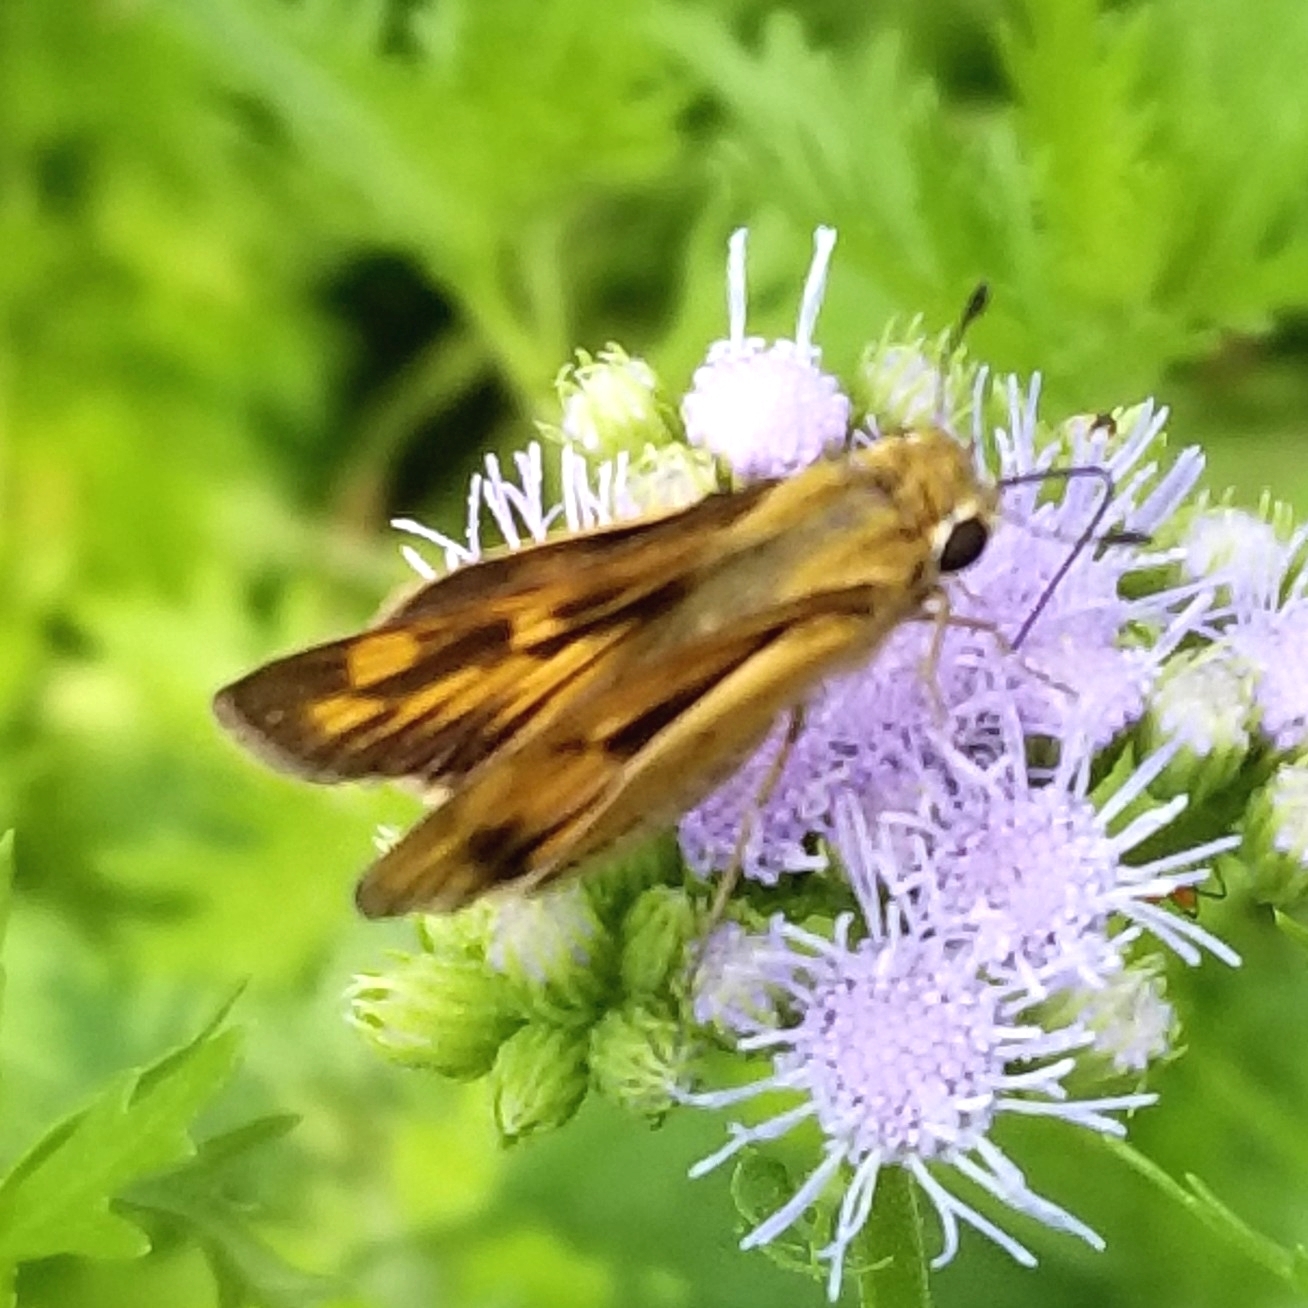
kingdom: Animalia
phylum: Arthropoda
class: Insecta
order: Lepidoptera
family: Hesperiidae
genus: Hylephila
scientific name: Hylephila phyleus
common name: Fiery skipper
